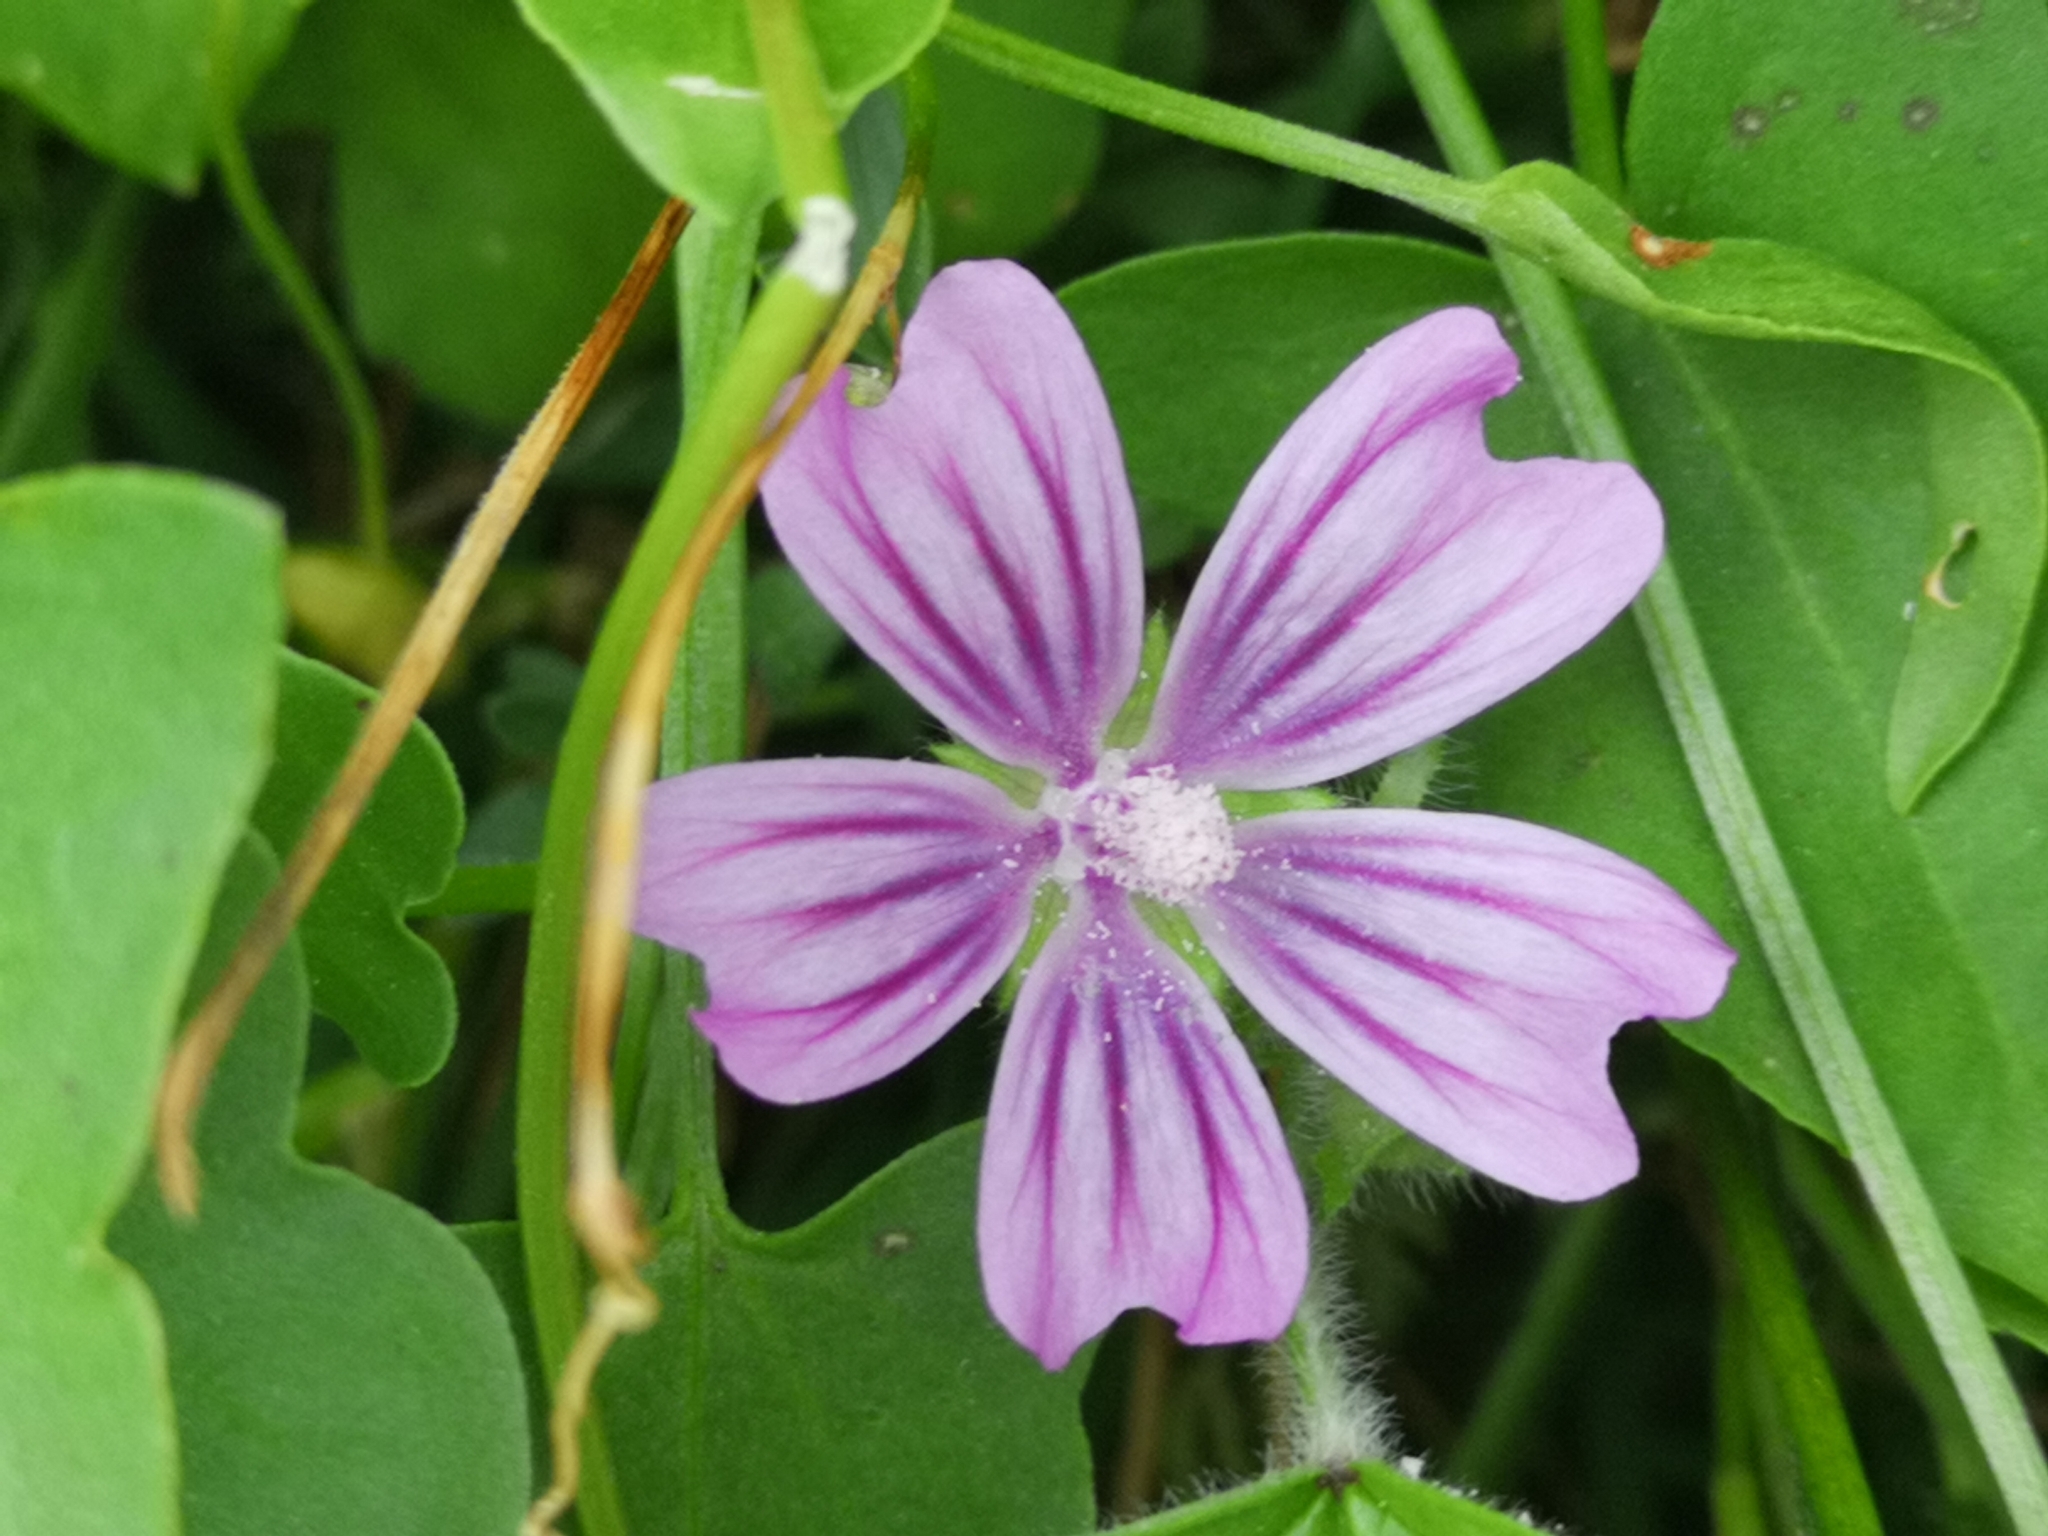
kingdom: Plantae
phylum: Tracheophyta
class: Magnoliopsida
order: Malvales
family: Malvaceae
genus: Malva
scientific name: Malva sylvestris
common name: Common mallow
